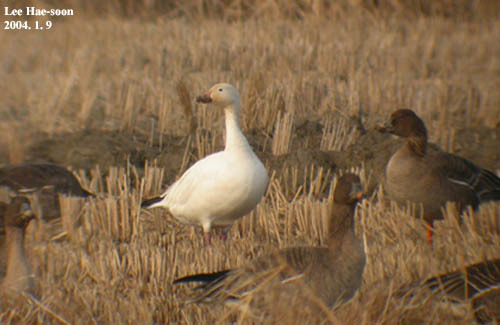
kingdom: Animalia
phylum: Chordata
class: Aves
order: Anseriformes
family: Anatidae
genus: Anser
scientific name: Anser caerulescens
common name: Snow goose
